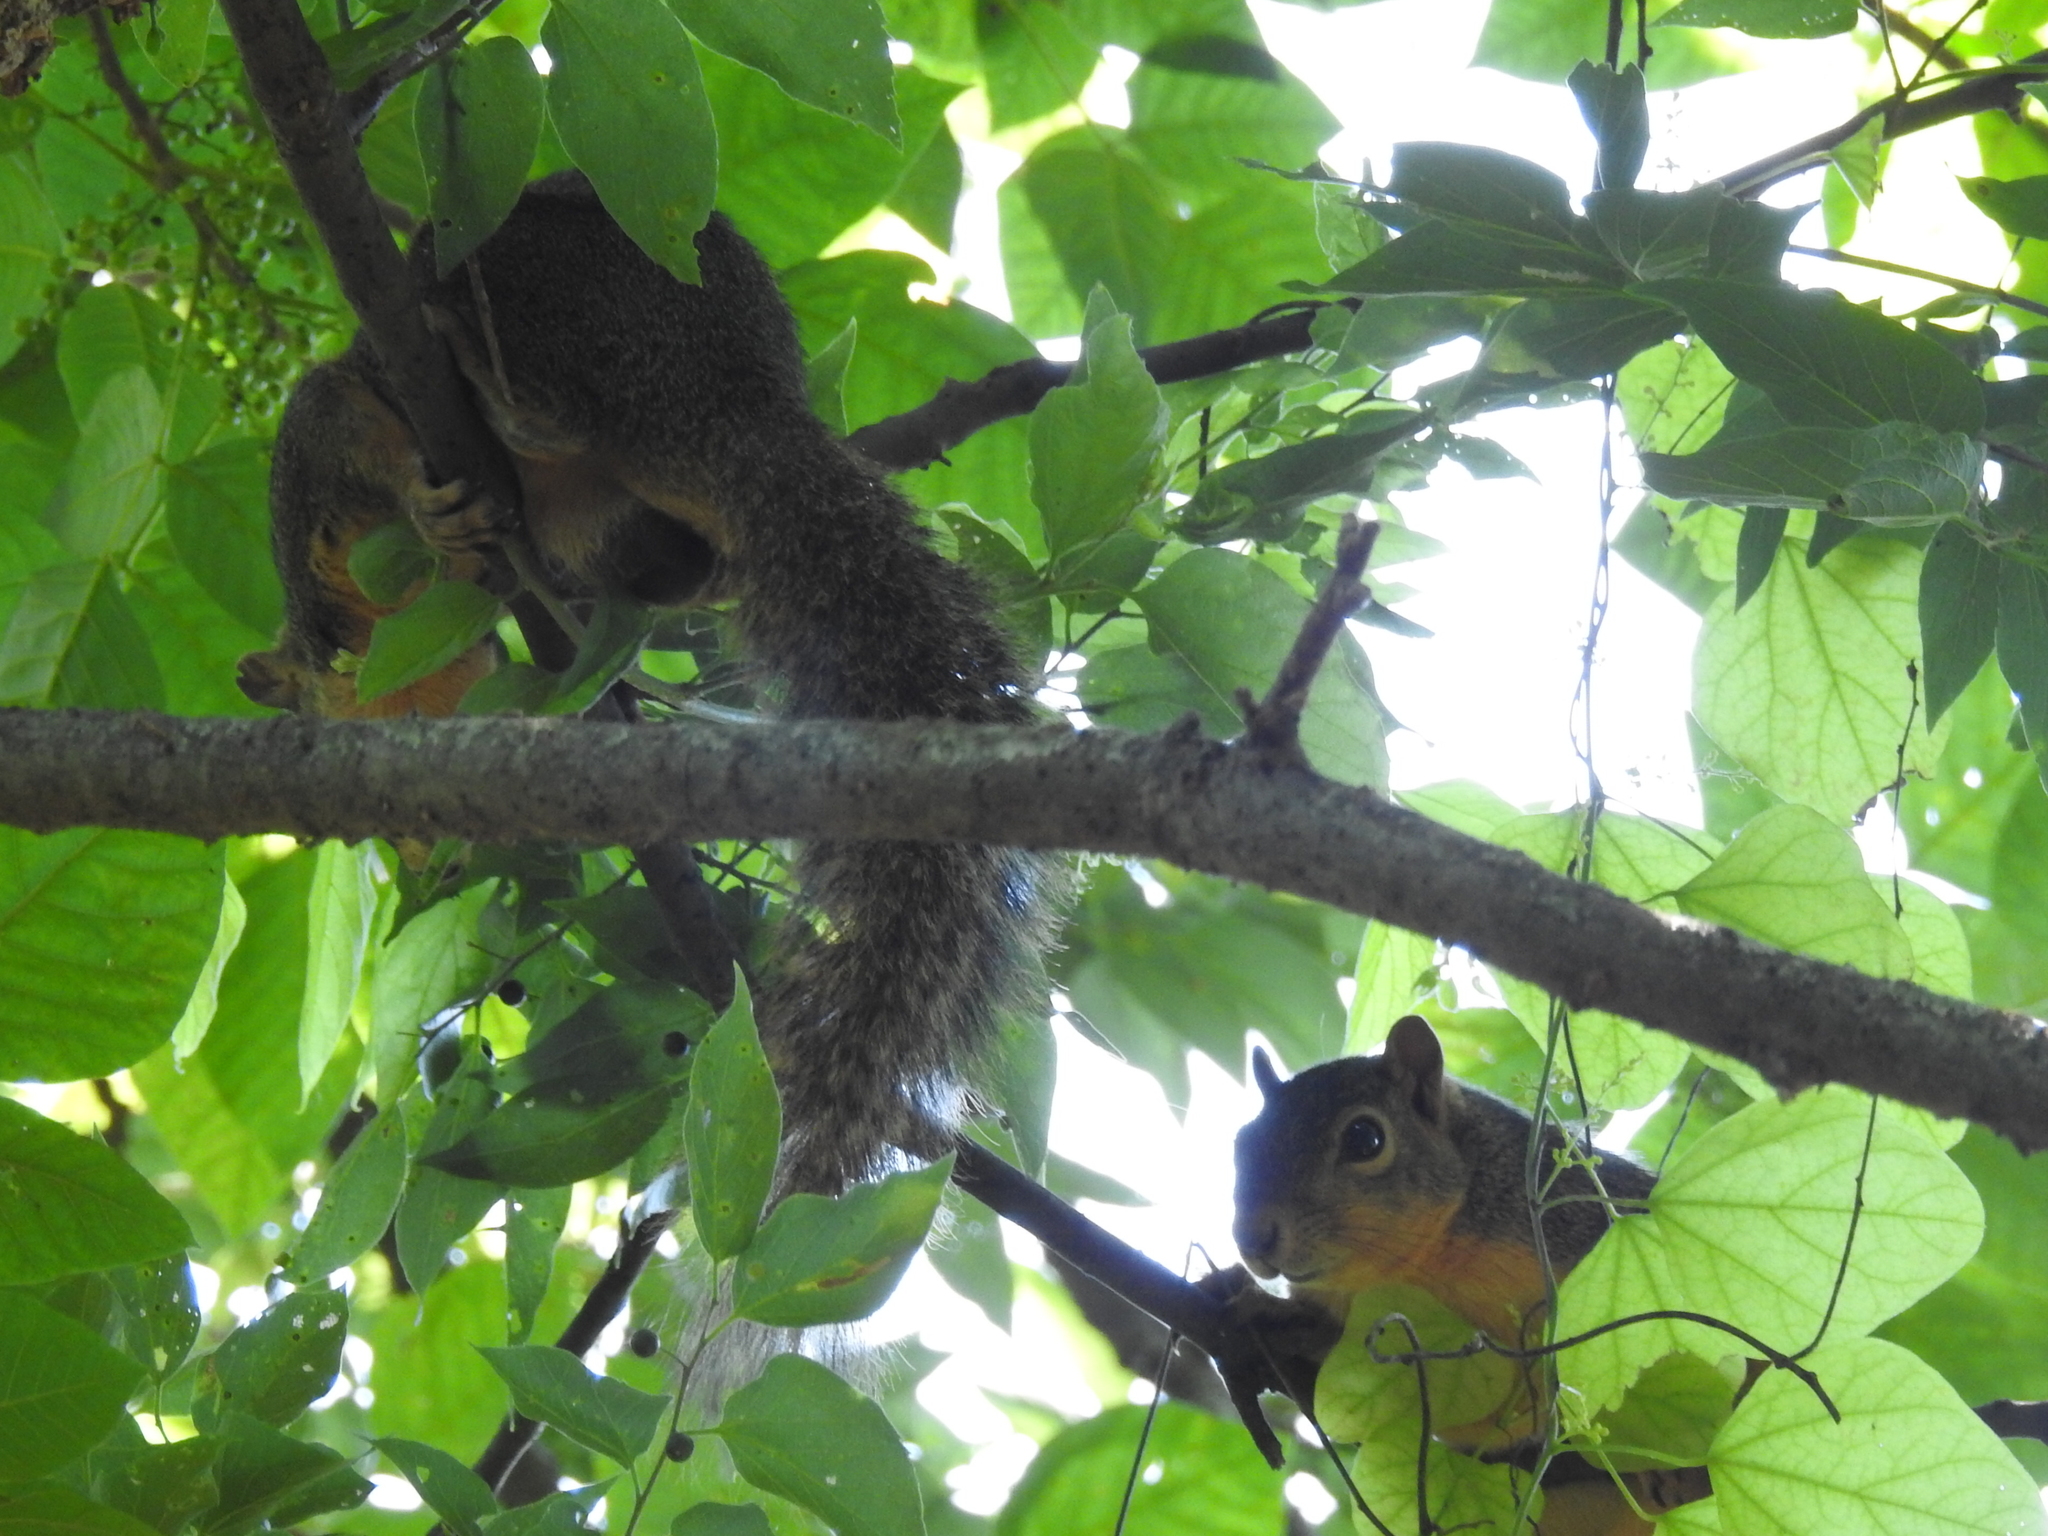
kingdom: Animalia
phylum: Chordata
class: Mammalia
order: Rodentia
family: Sciuridae
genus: Sciurus
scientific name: Sciurus niger
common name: Fox squirrel
